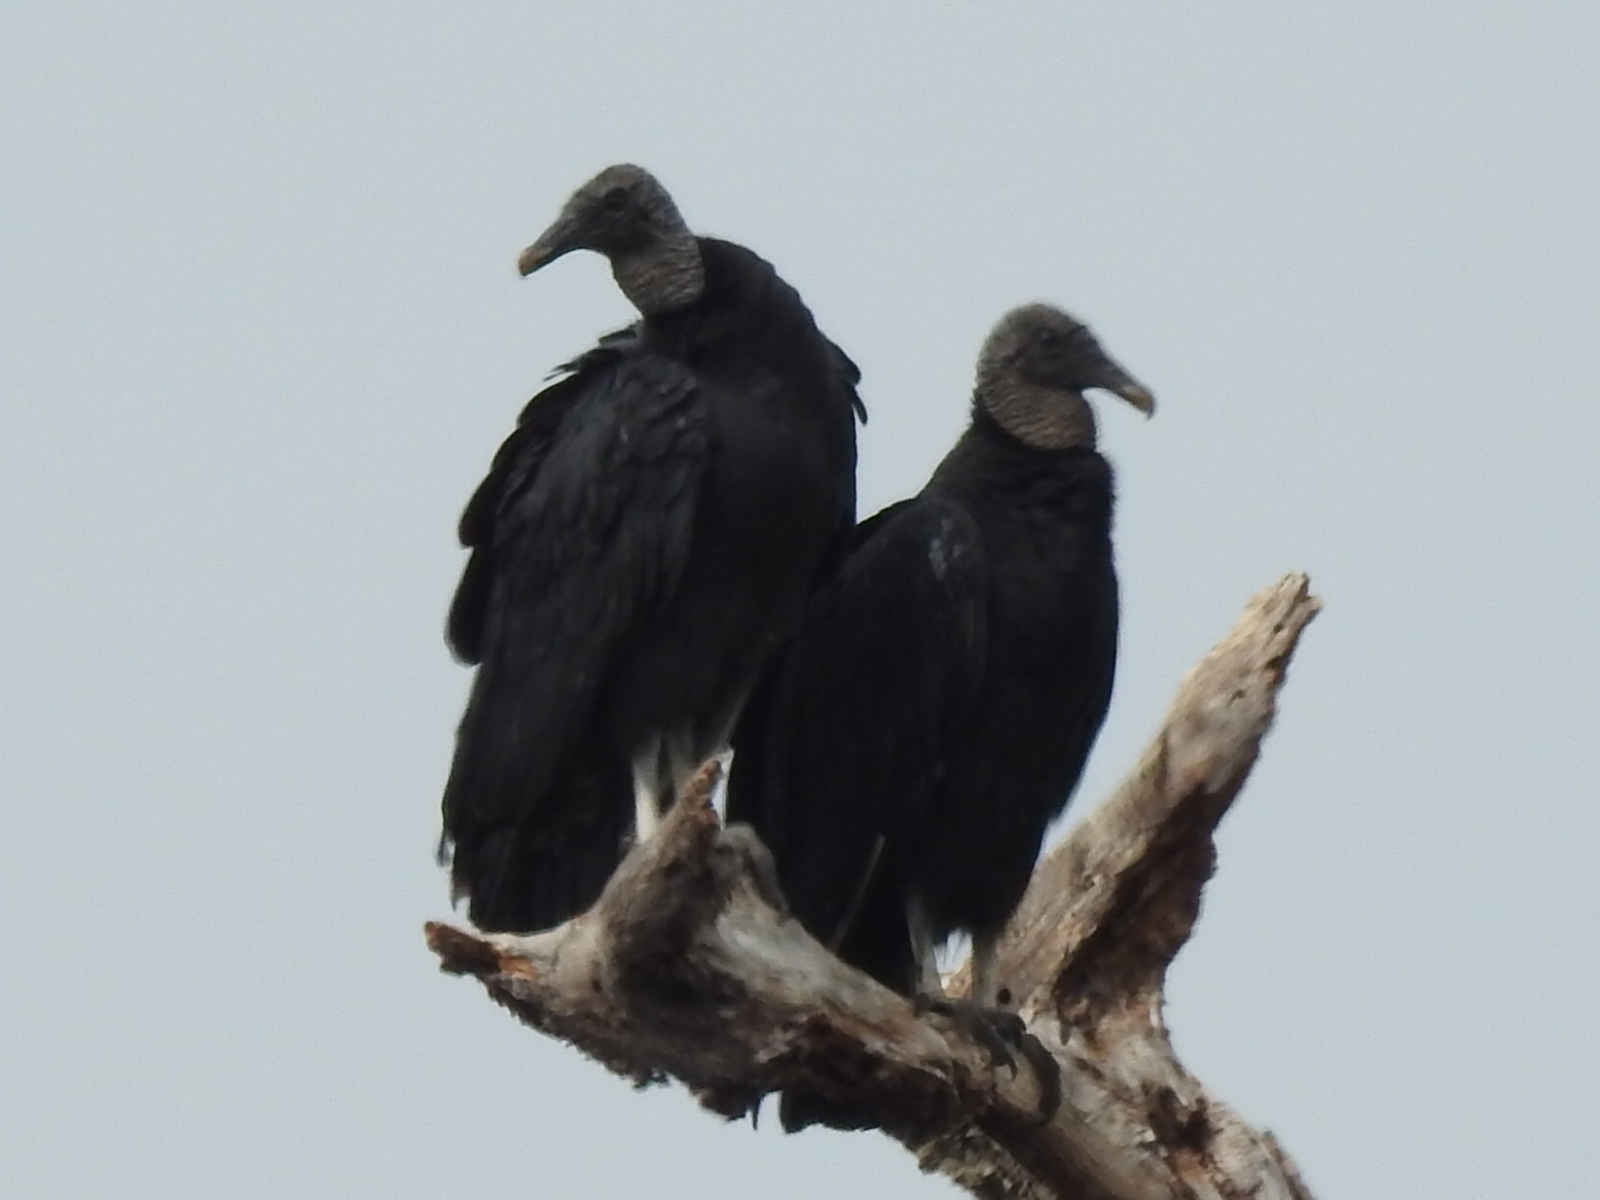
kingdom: Animalia
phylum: Chordata
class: Aves
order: Accipitriformes
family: Cathartidae
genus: Coragyps
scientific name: Coragyps atratus
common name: Black vulture
